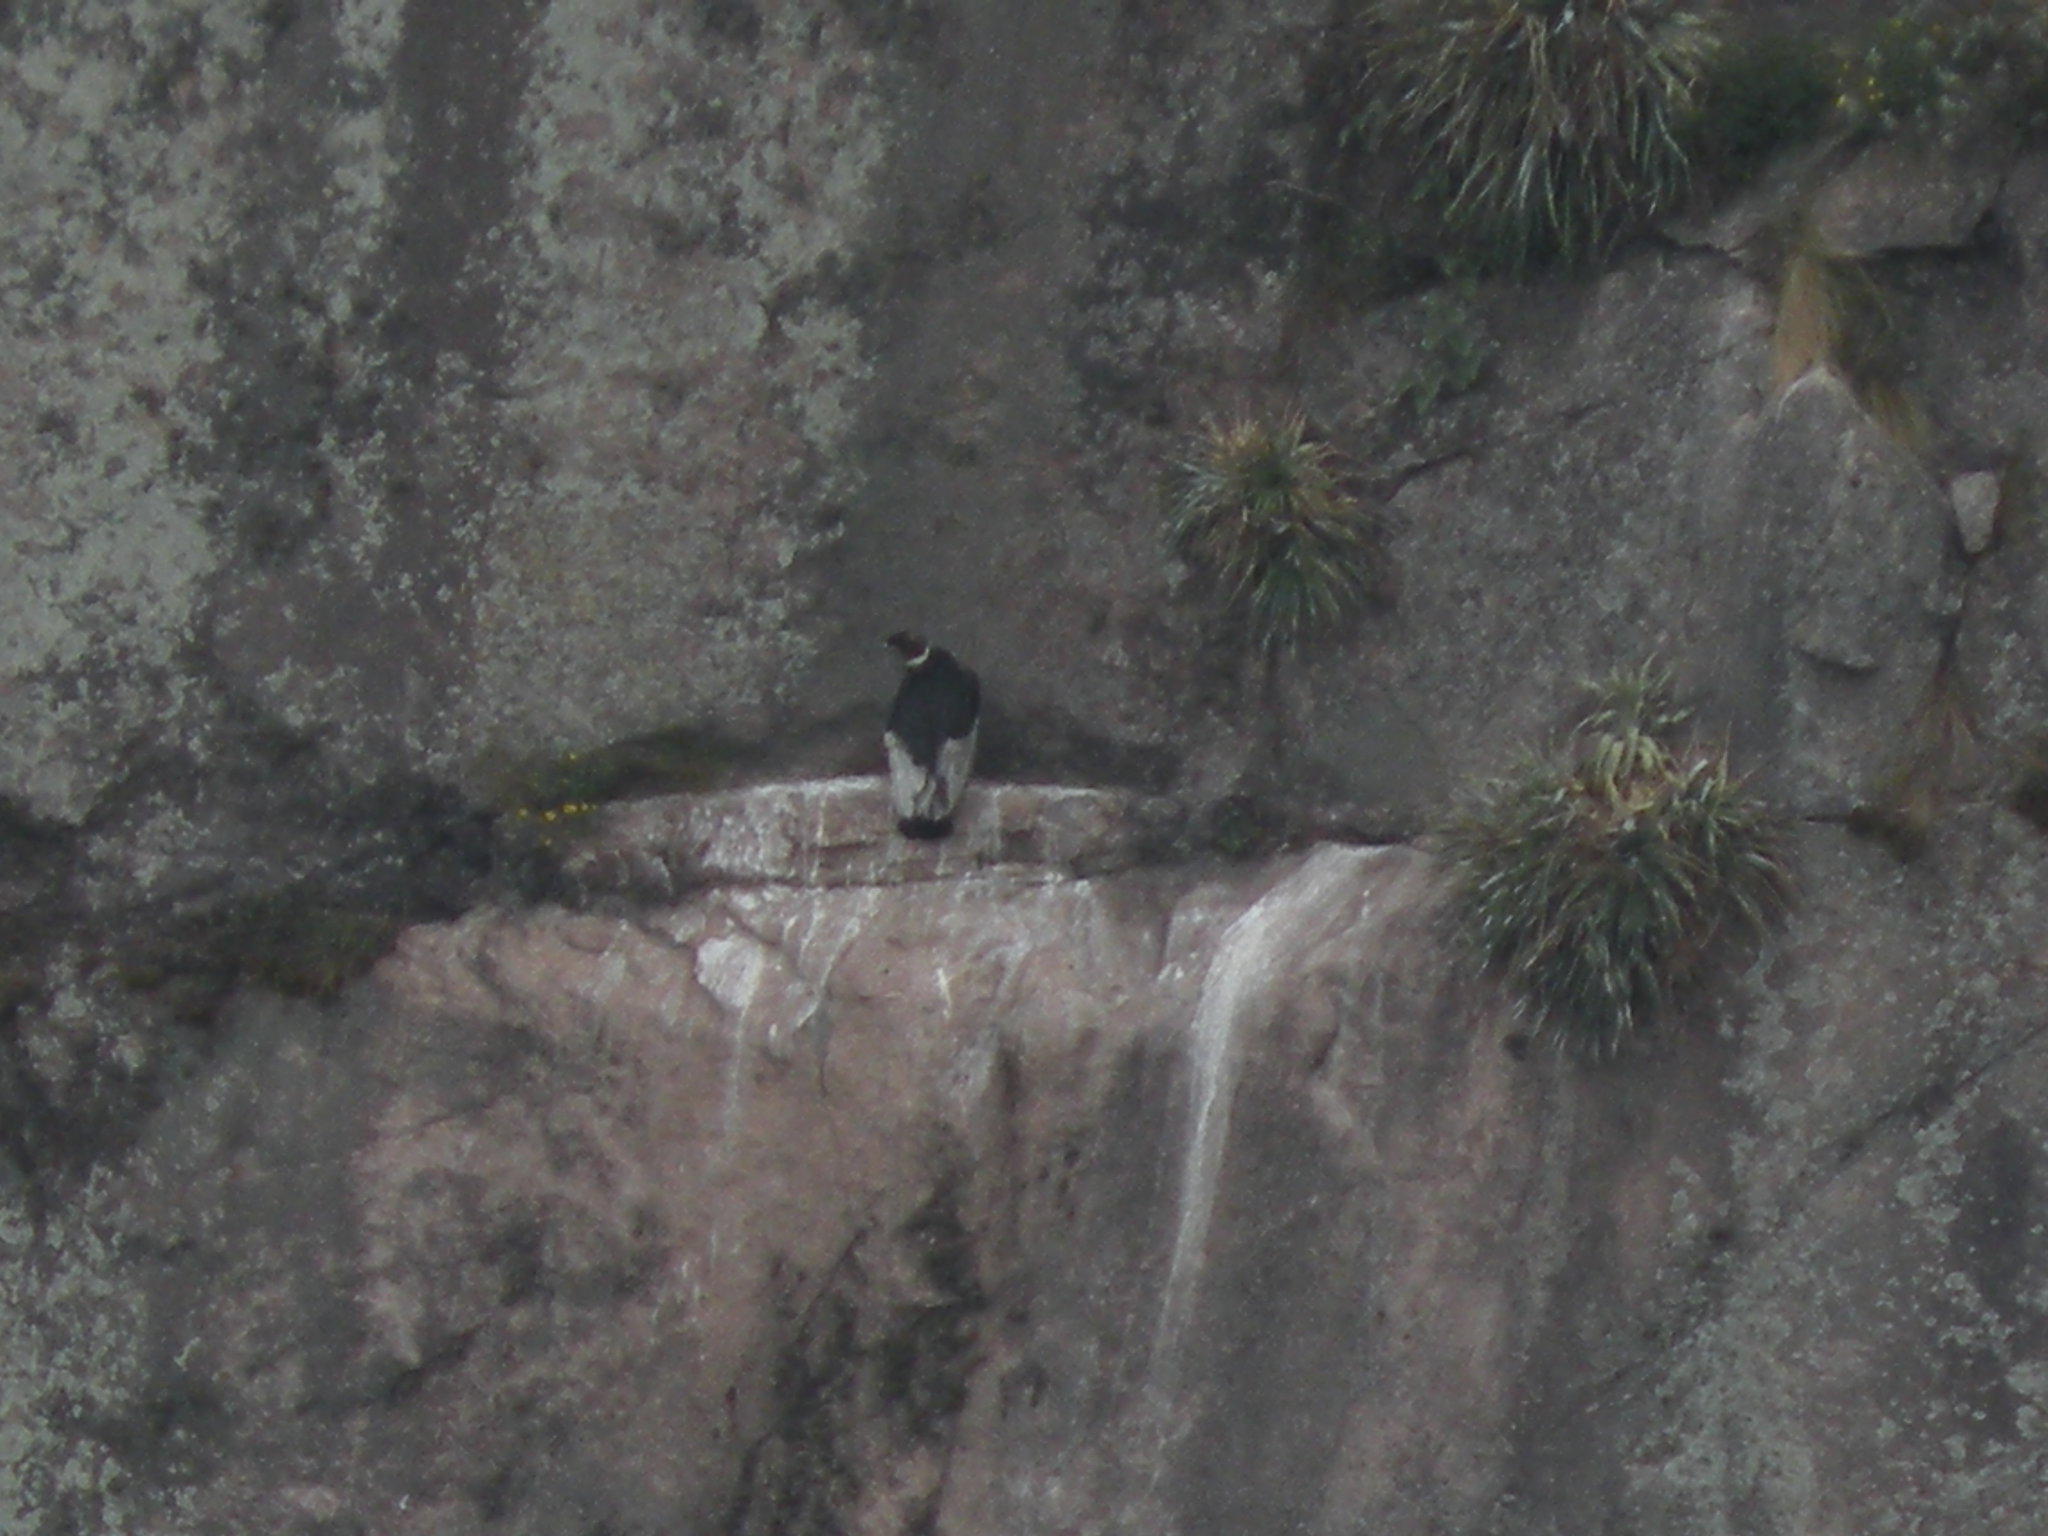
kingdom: Animalia
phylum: Chordata
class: Aves
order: Accipitriformes
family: Cathartidae
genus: Vultur
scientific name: Vultur gryphus
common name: Andean condor
